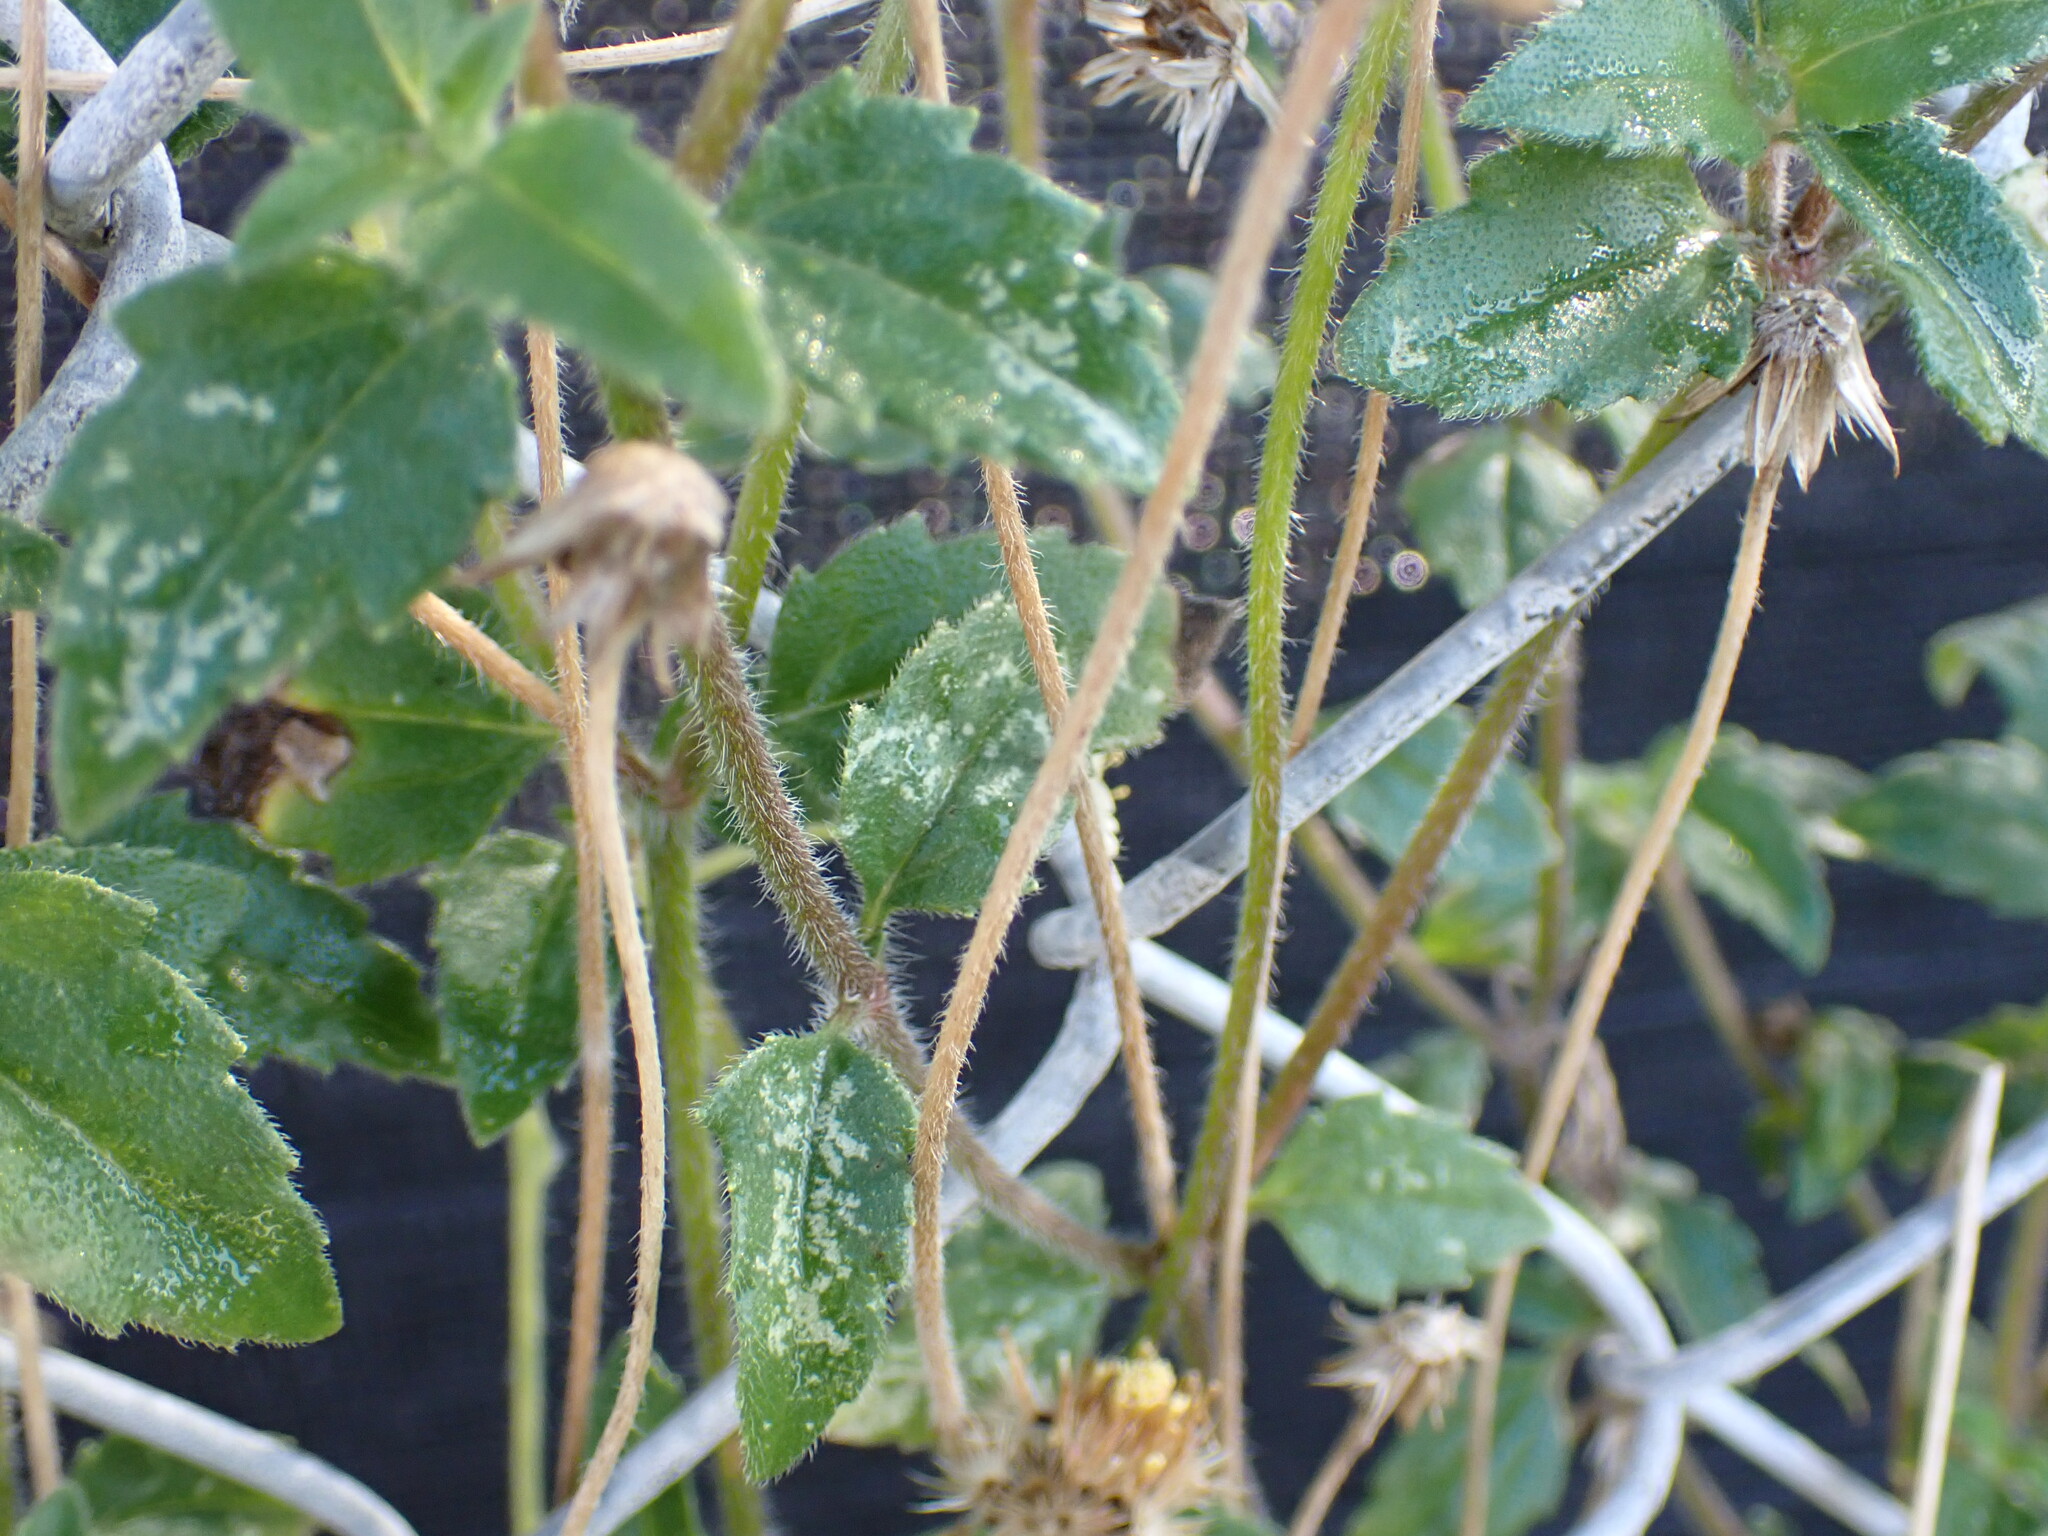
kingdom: Plantae
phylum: Tracheophyta
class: Magnoliopsida
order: Asterales
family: Asteraceae
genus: Tridax
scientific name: Tridax procumbens
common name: Coatbuttons
